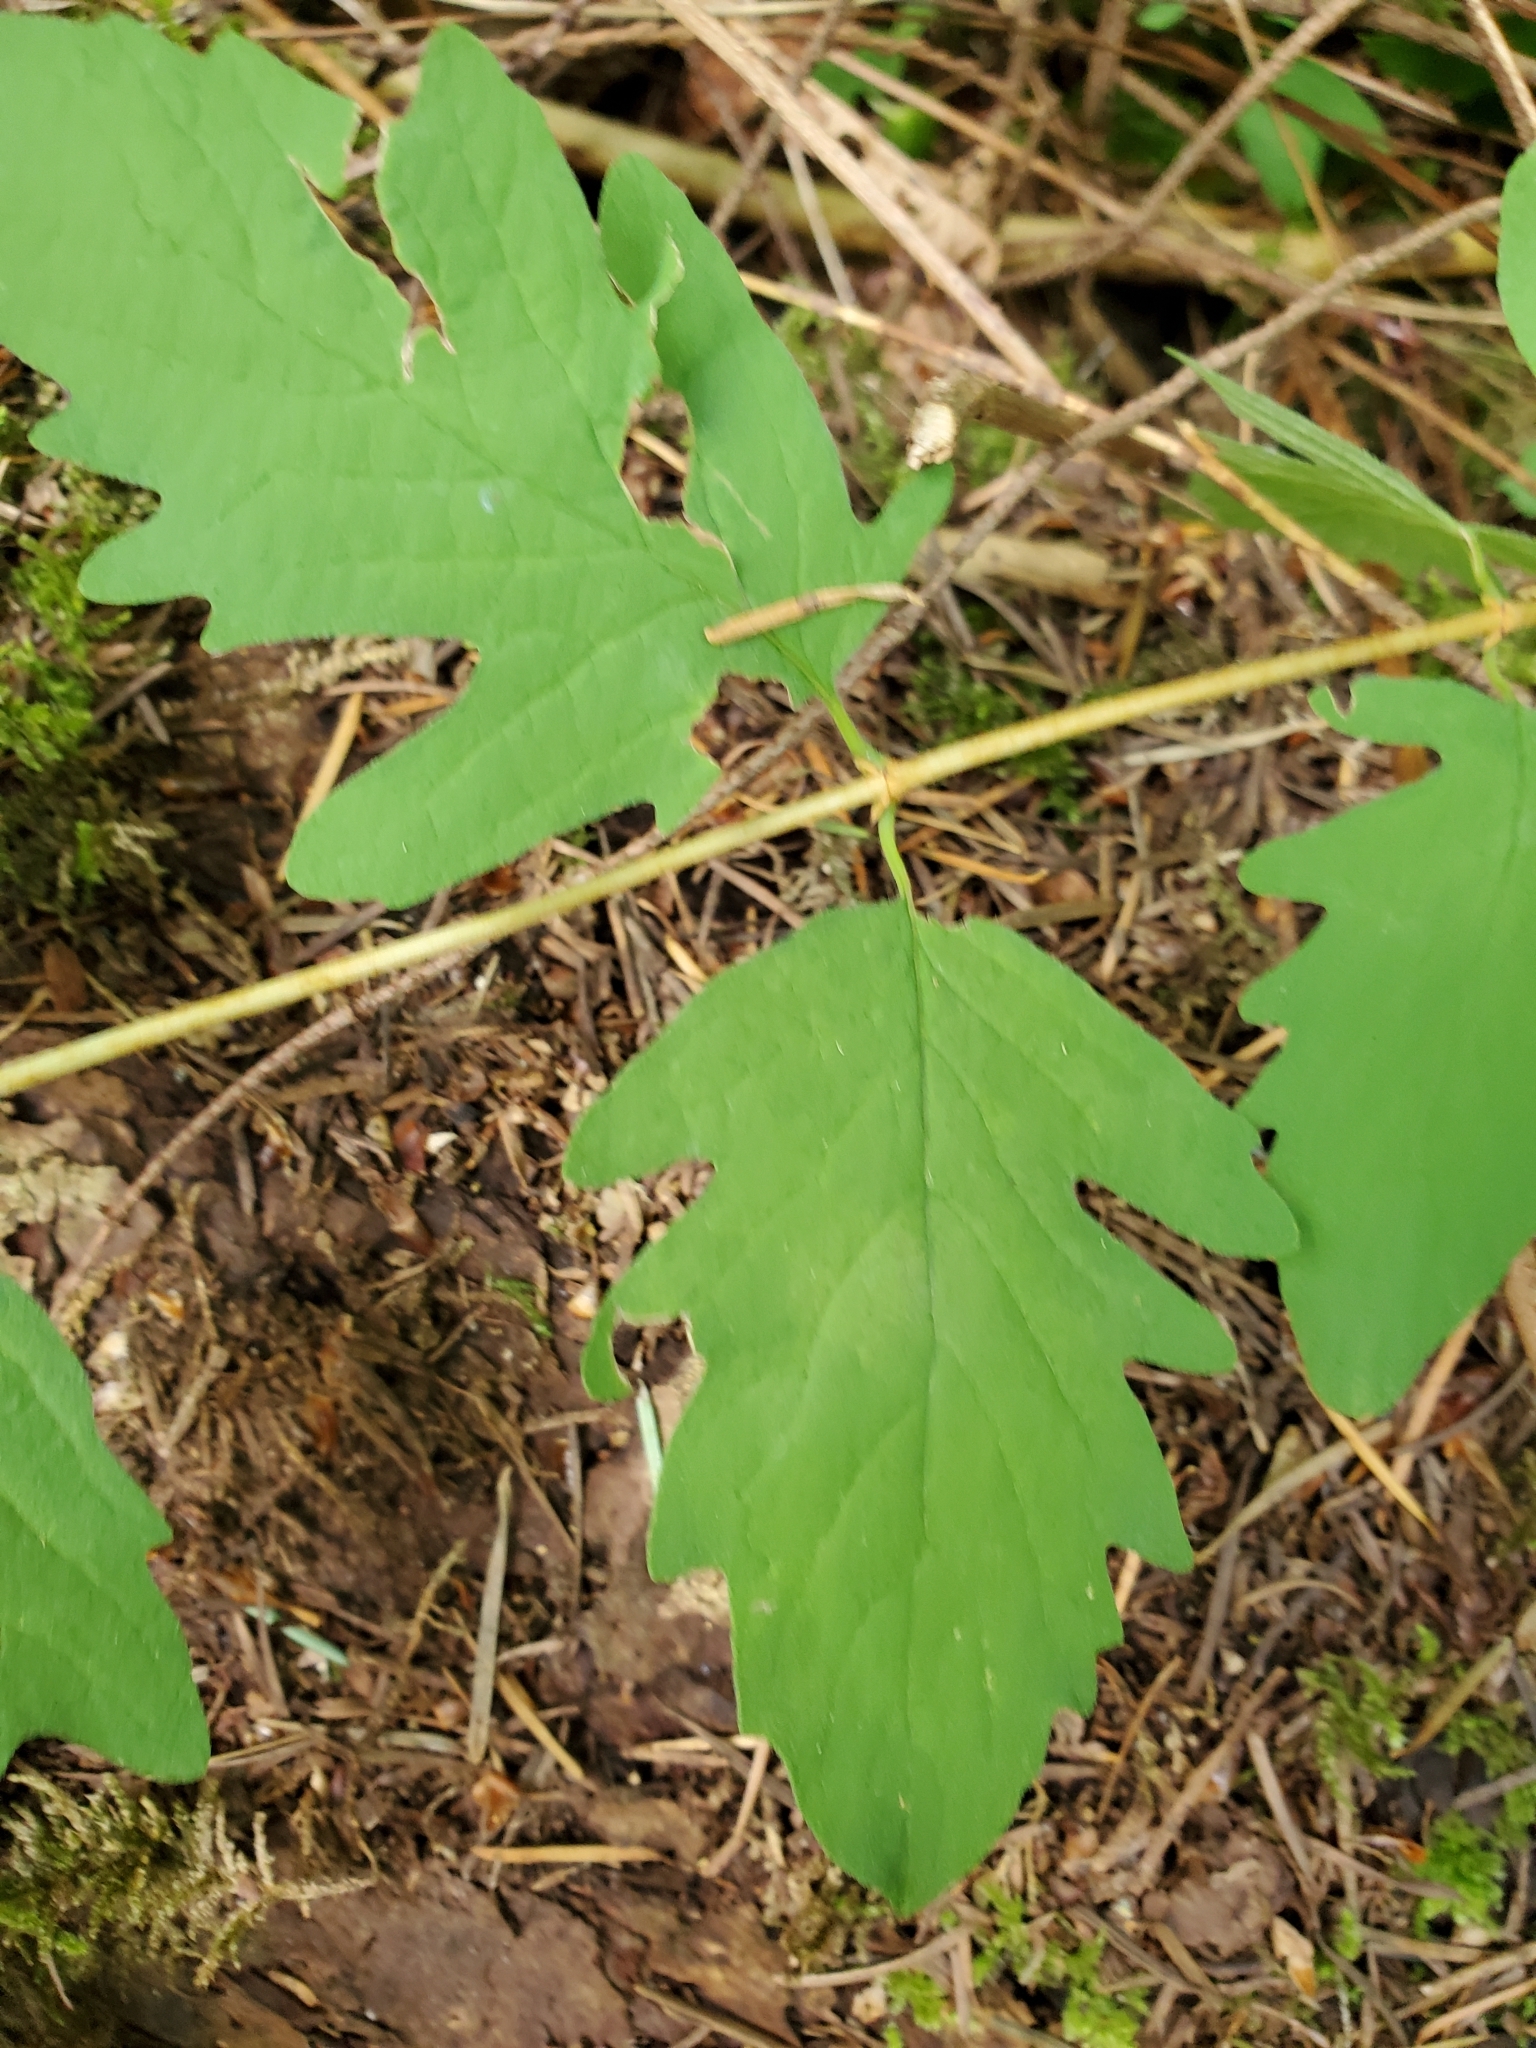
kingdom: Plantae
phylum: Tracheophyta
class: Magnoliopsida
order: Dipsacales
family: Caprifoliaceae
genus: Symphoricarpos
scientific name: Symphoricarpos mollis
